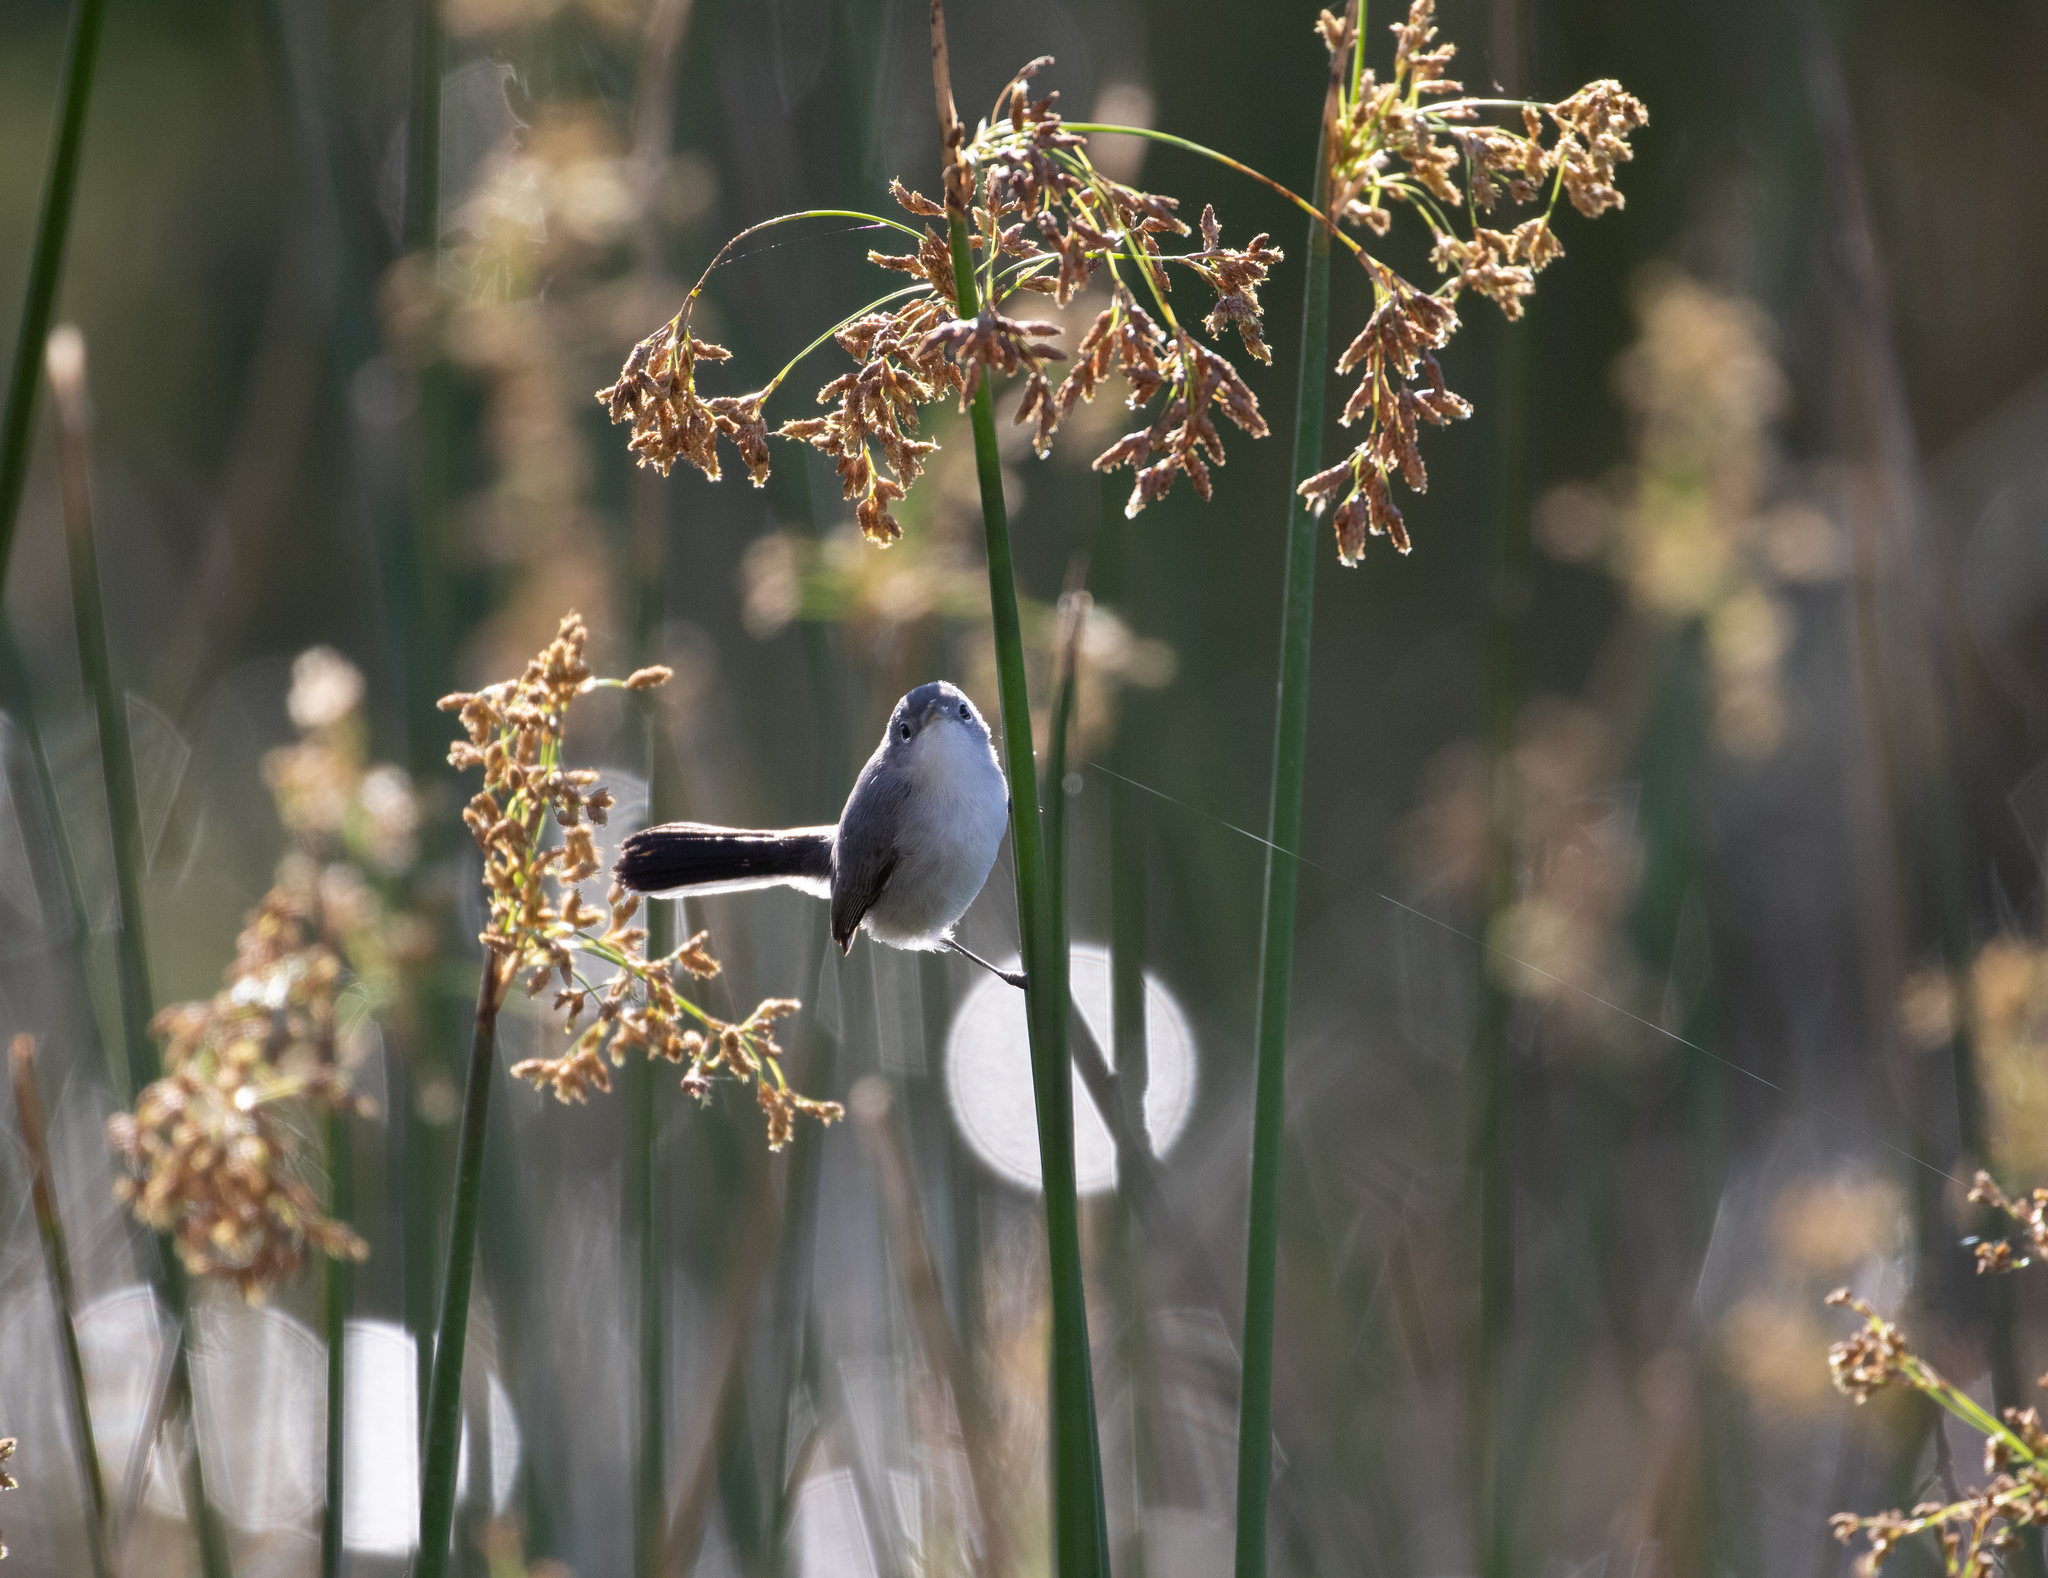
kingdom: Animalia
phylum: Chordata
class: Aves
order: Passeriformes
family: Polioptilidae
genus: Polioptila
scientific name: Polioptila caerulea
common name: Blue-gray gnatcatcher
